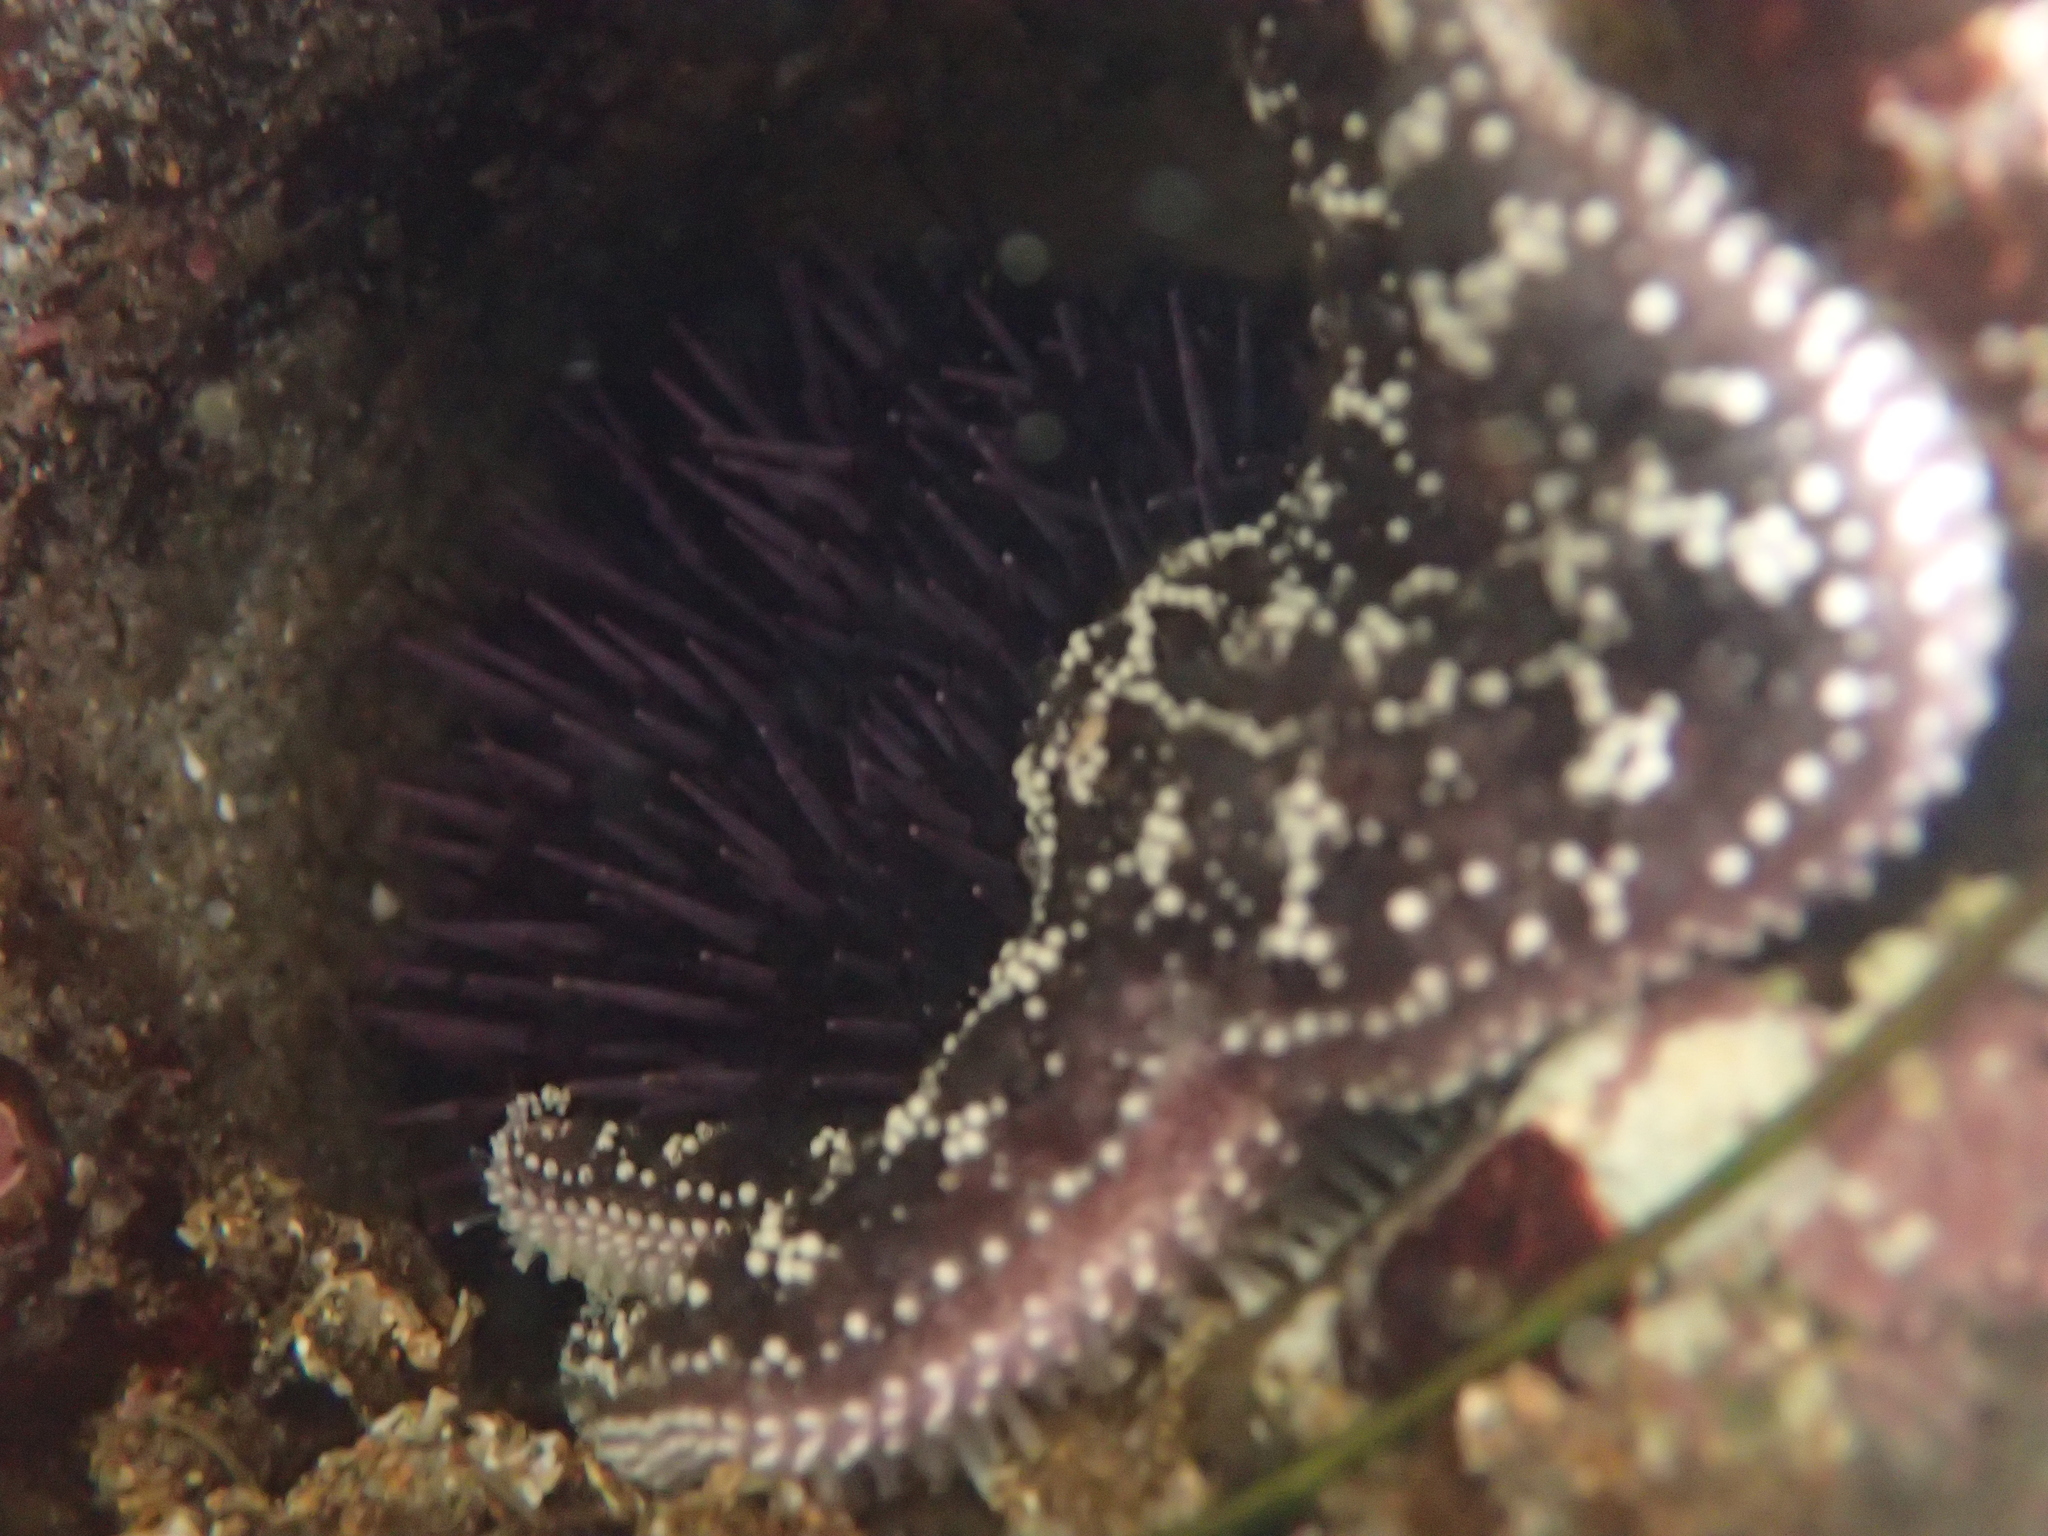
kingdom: Animalia
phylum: Echinodermata
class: Asteroidea
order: Forcipulatida
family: Asteriidae
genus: Pisaster
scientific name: Pisaster ochraceus
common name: Ochre stars
